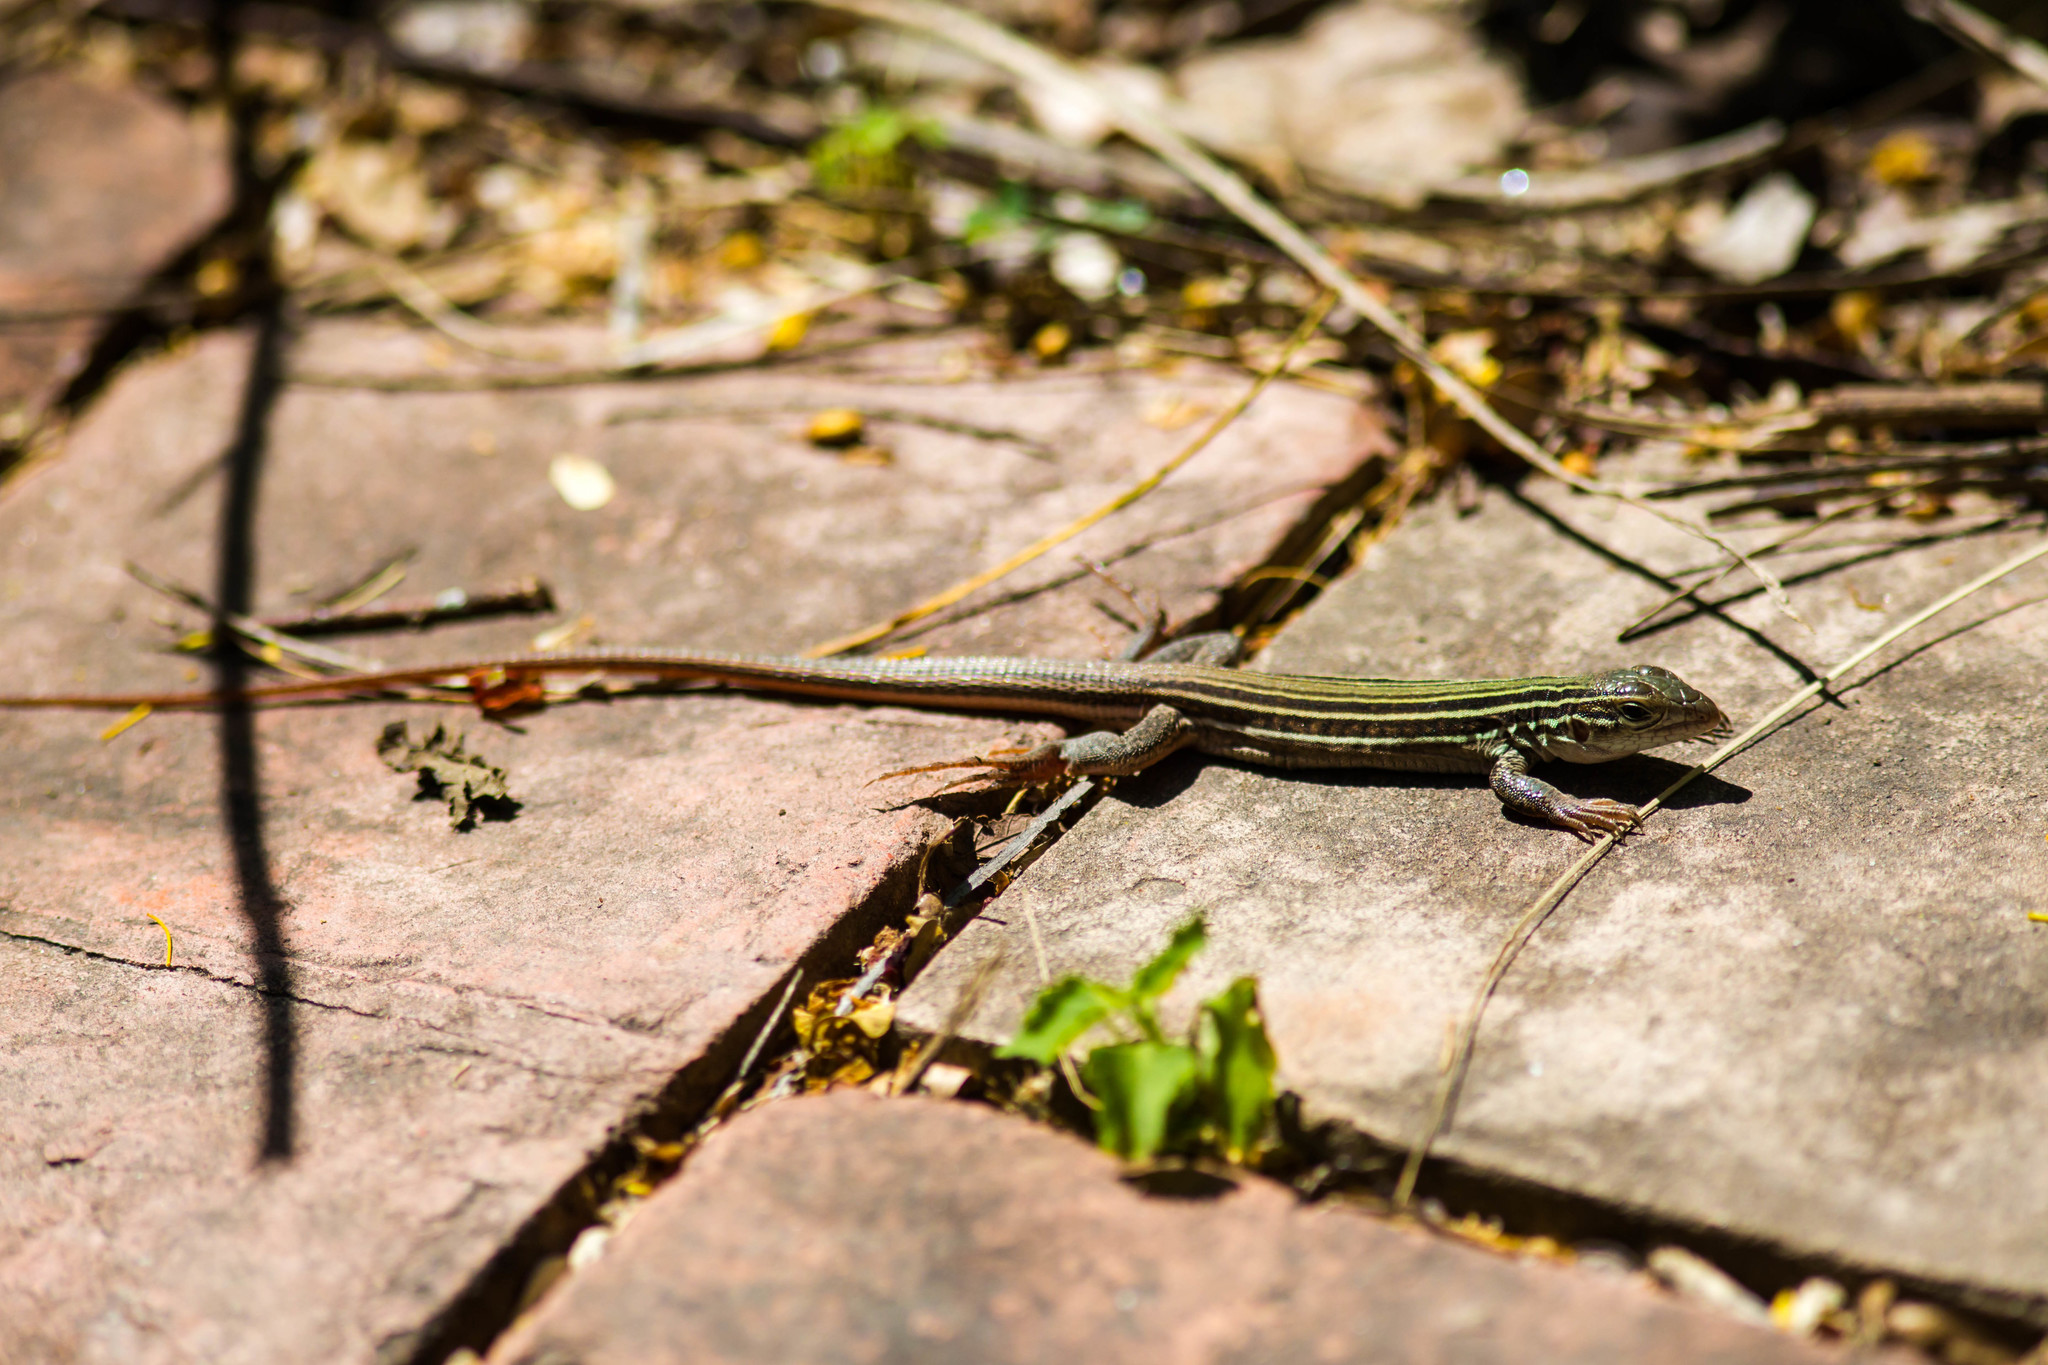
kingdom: Animalia
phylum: Chordata
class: Squamata
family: Teiidae
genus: Aspidoscelis
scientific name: Aspidoscelis gularis
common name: Eastern spotted whiptail
